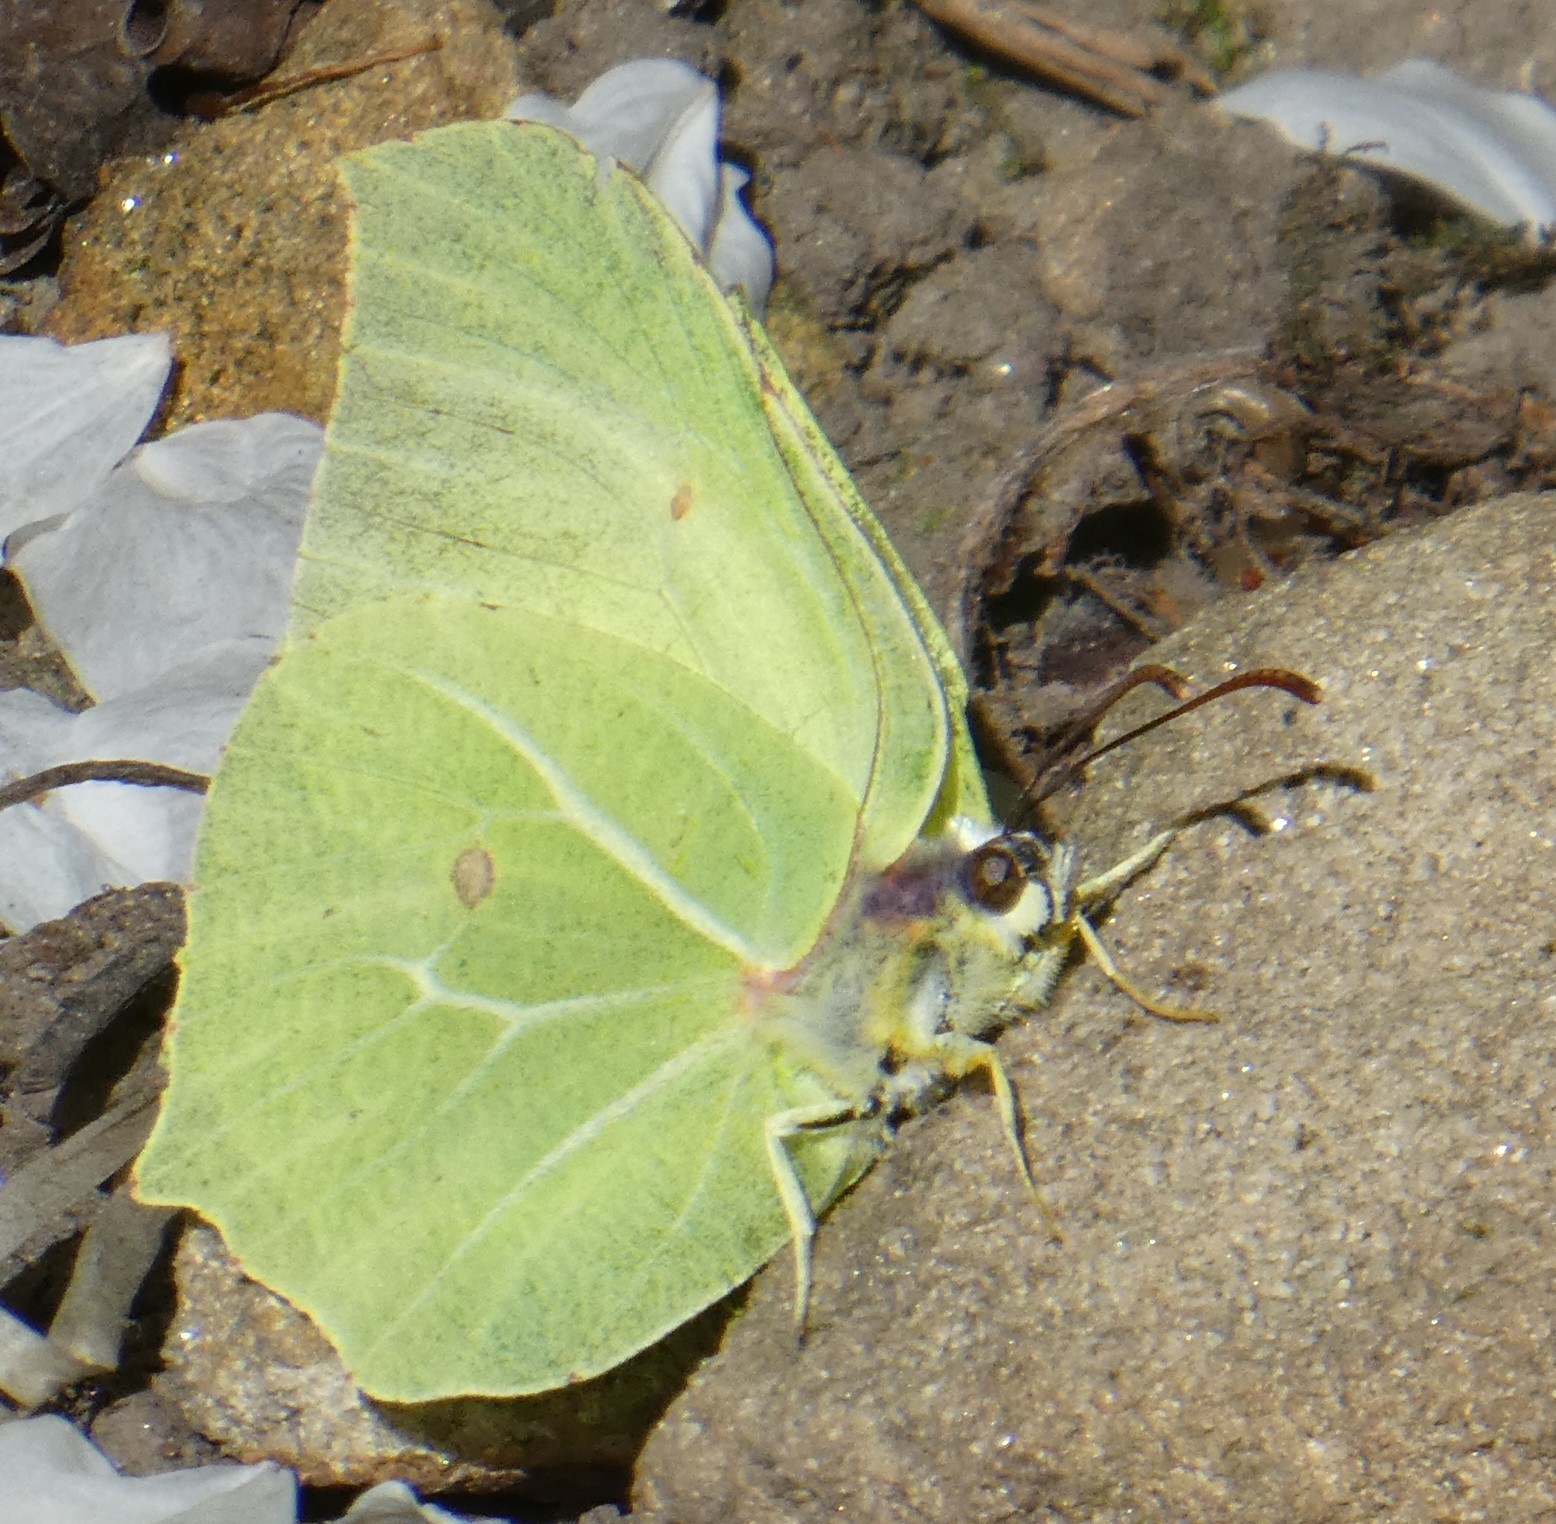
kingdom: Animalia
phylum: Arthropoda
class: Insecta
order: Lepidoptera
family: Pieridae
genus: Gonepteryx
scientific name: Gonepteryx rhamni
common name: Brimstone
